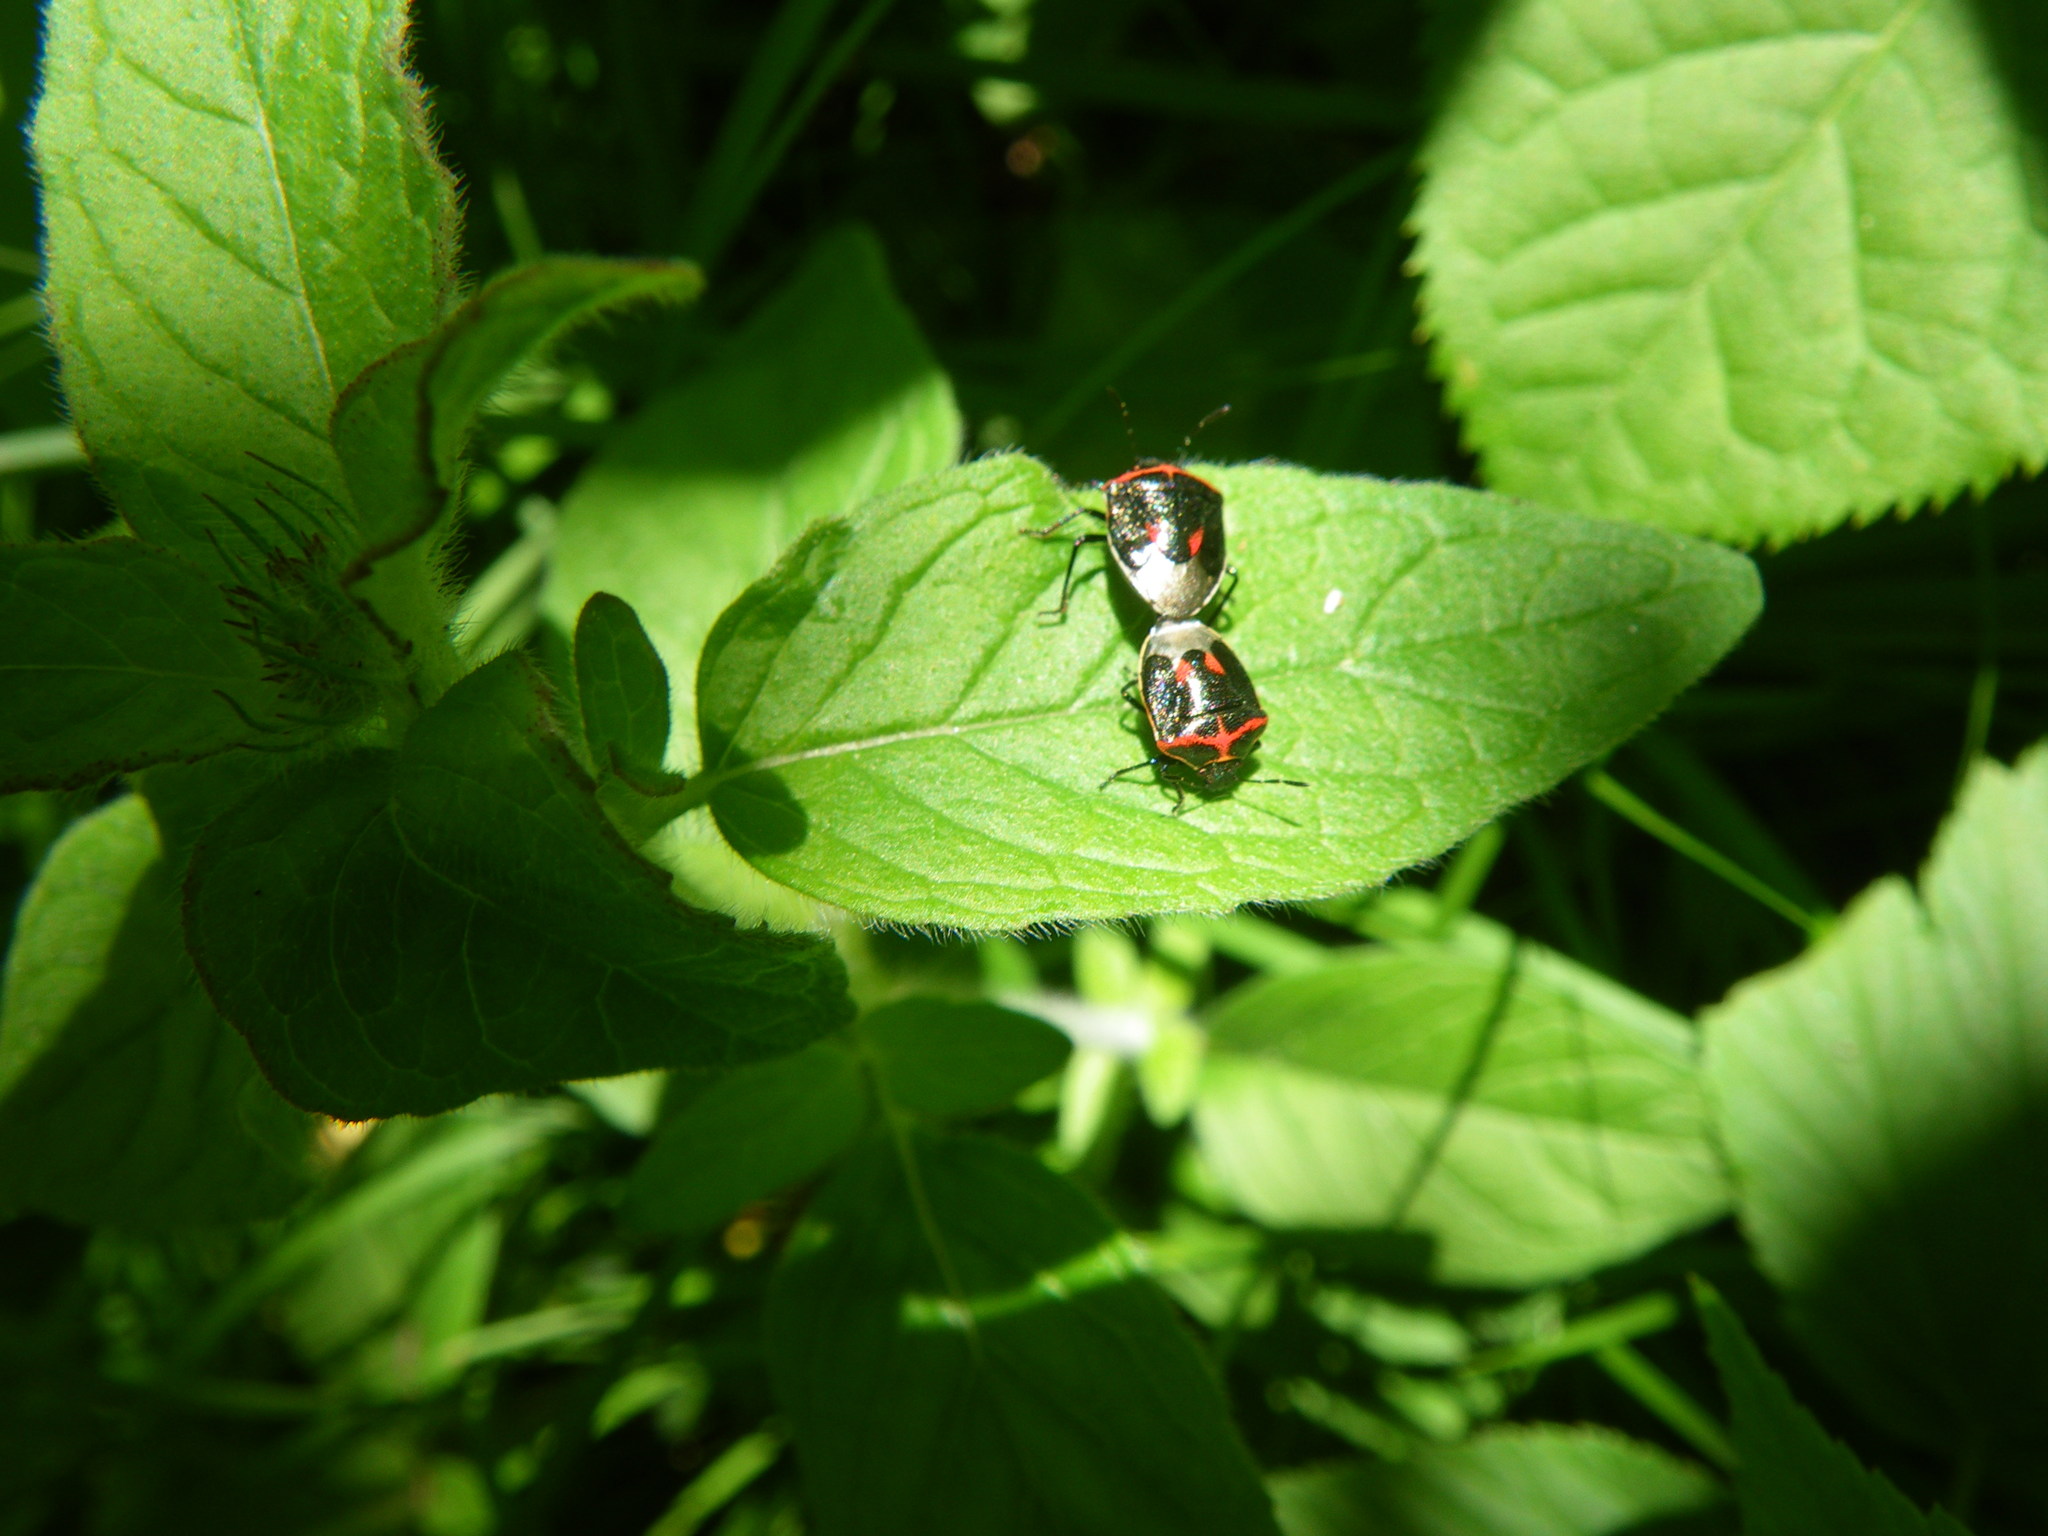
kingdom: Animalia
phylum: Arthropoda
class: Insecta
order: Hemiptera
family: Pentatomidae
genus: Cosmopepla
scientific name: Cosmopepla lintneriana
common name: Twice-stabbed stink bug
